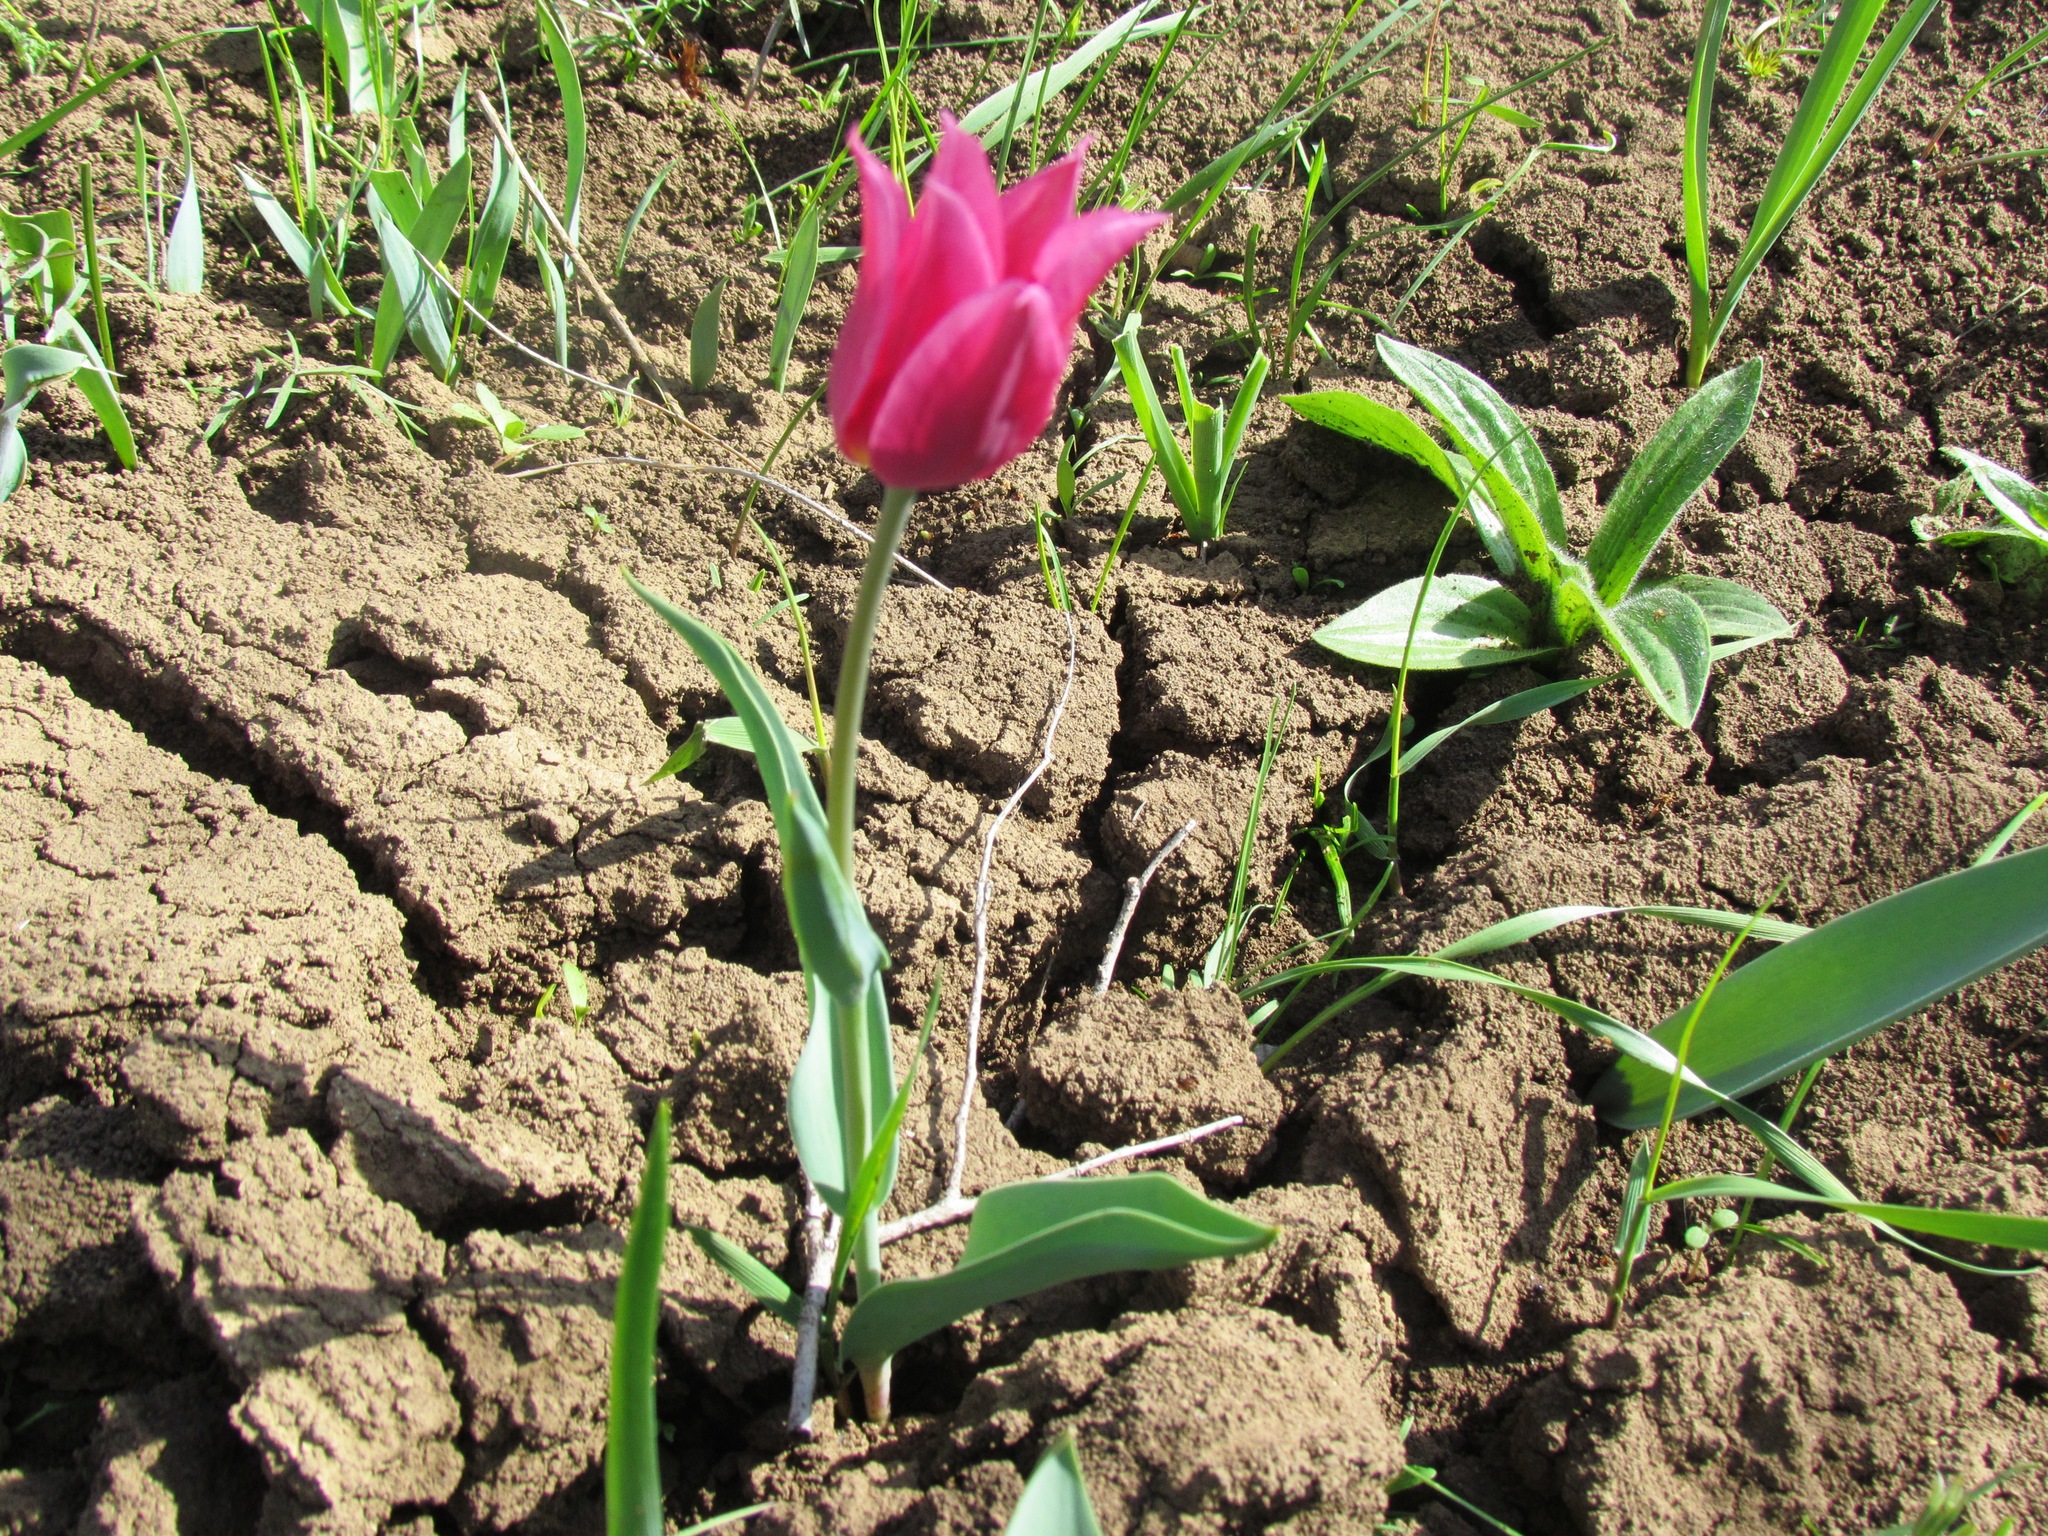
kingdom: Plantae
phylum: Tracheophyta
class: Liliopsida
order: Liliales
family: Liliaceae
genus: Tulipa
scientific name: Tulipa suaveolens
